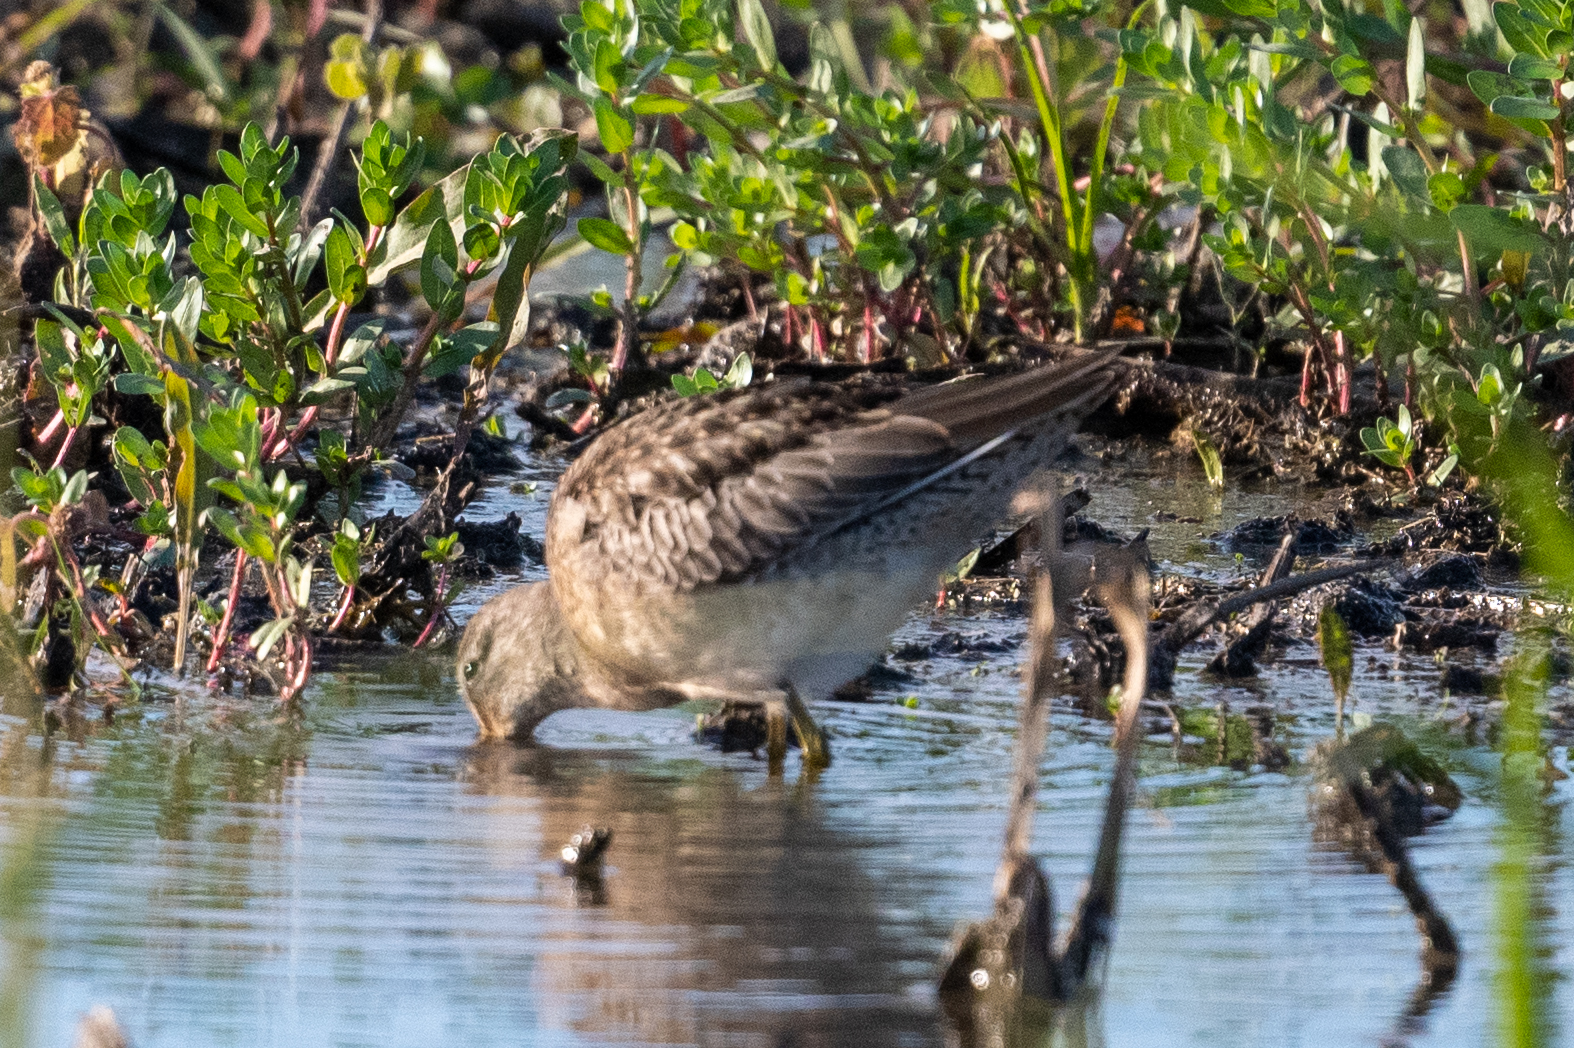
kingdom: Animalia
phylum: Chordata
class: Aves
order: Charadriiformes
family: Scolopacidae
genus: Limnodromus
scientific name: Limnodromus scolopaceus
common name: Long-billed dowitcher
